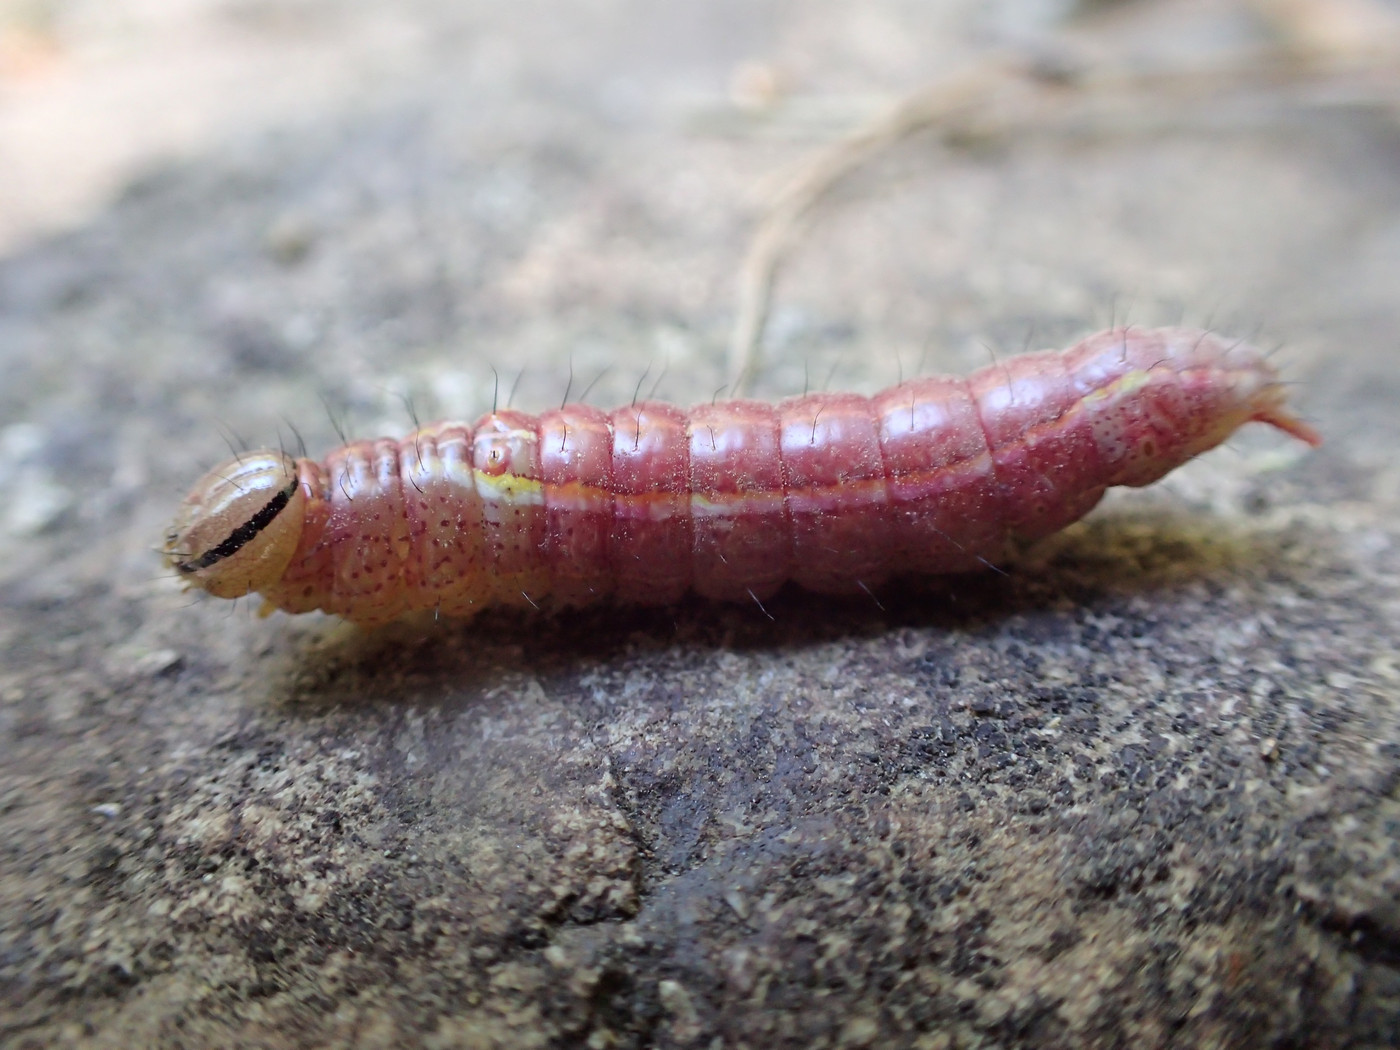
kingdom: Animalia
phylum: Arthropoda
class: Insecta
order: Lepidoptera
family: Notodontidae
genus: Lochmaeus
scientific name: Lochmaeus manteo
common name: Variable oakleaf caterpillar moth
